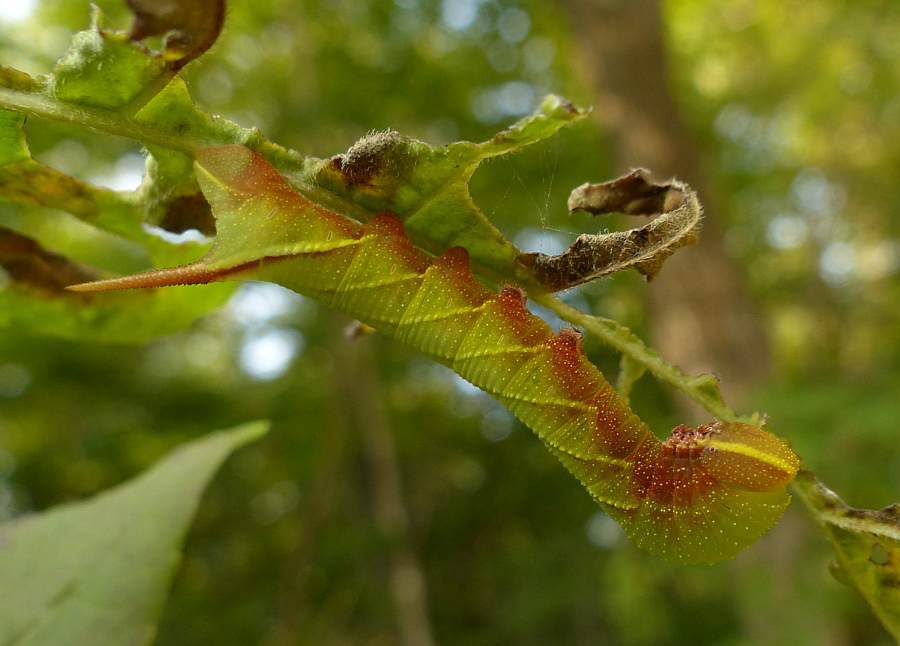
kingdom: Animalia
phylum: Arthropoda
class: Insecta
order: Lepidoptera
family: Sphingidae
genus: Sphinx
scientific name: Sphinx chersis
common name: Great ash sphinx
